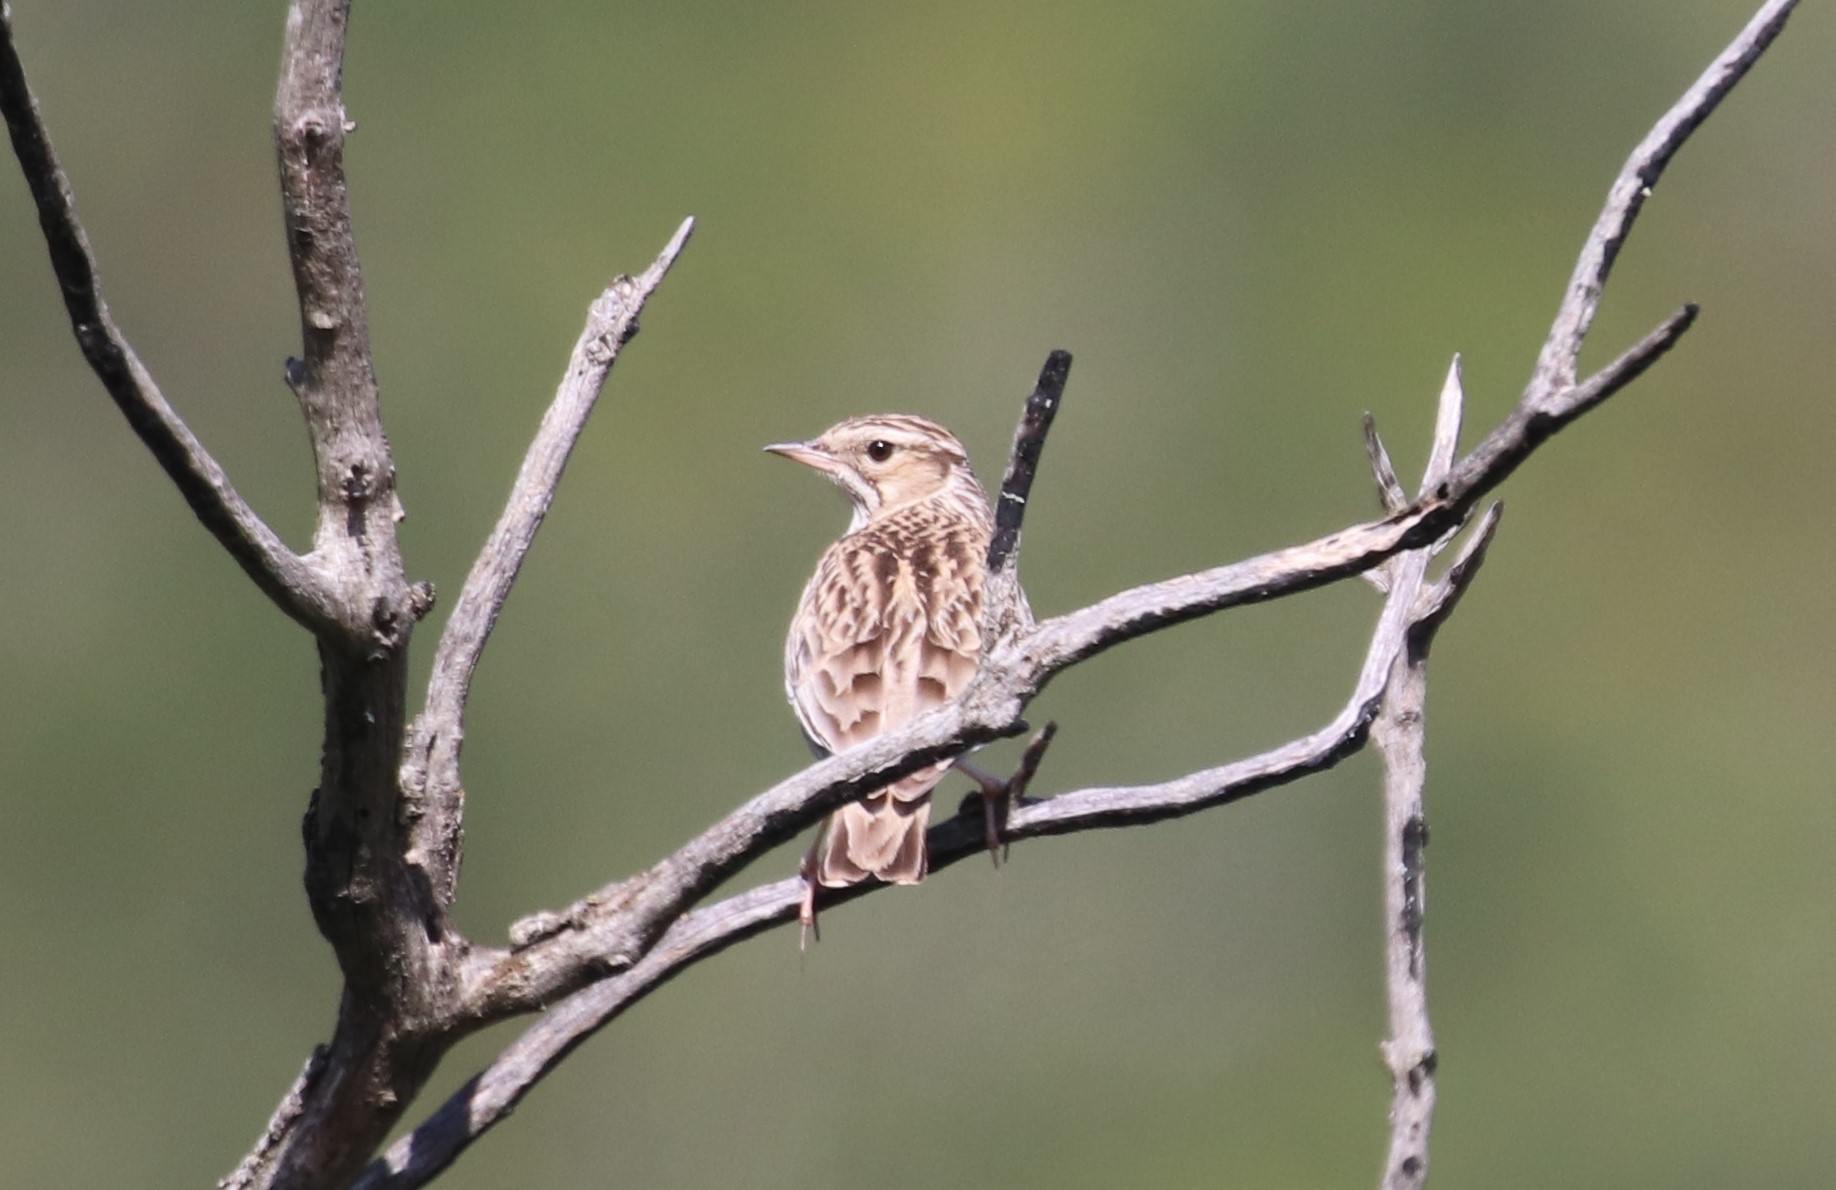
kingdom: Animalia
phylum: Chordata
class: Aves
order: Passeriformes
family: Alaudidae
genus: Lullula
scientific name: Lullula arborea
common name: Woodlark
